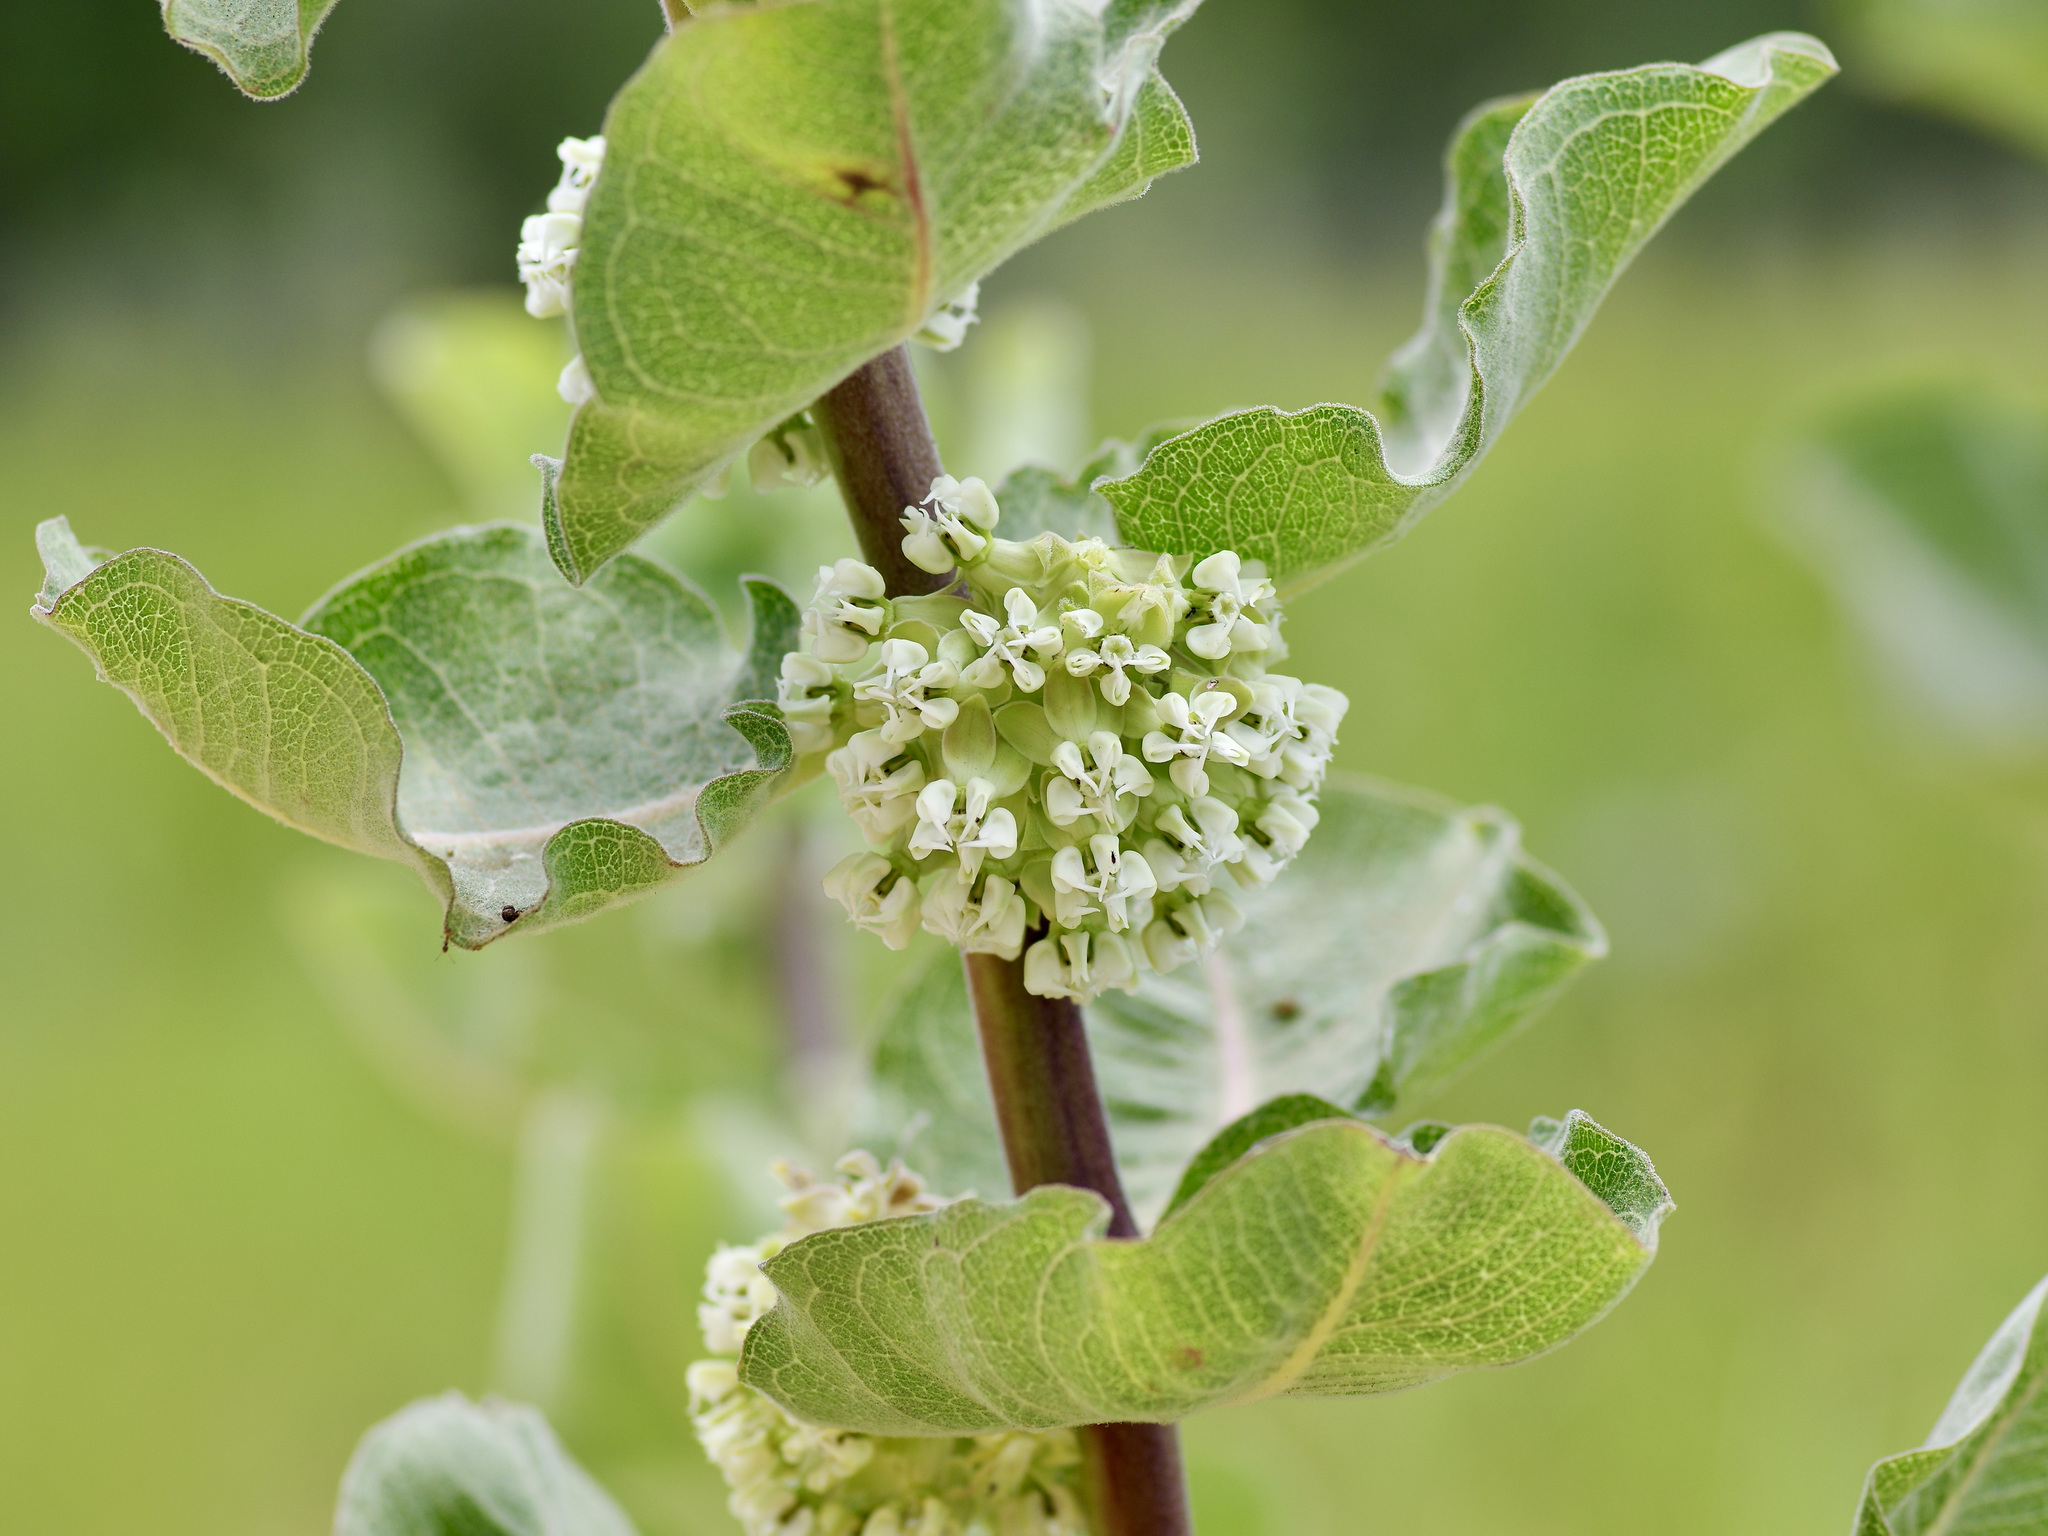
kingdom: Plantae
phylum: Tracheophyta
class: Magnoliopsida
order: Gentianales
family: Apocynaceae
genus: Asclepias
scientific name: Asclepias arenaria
